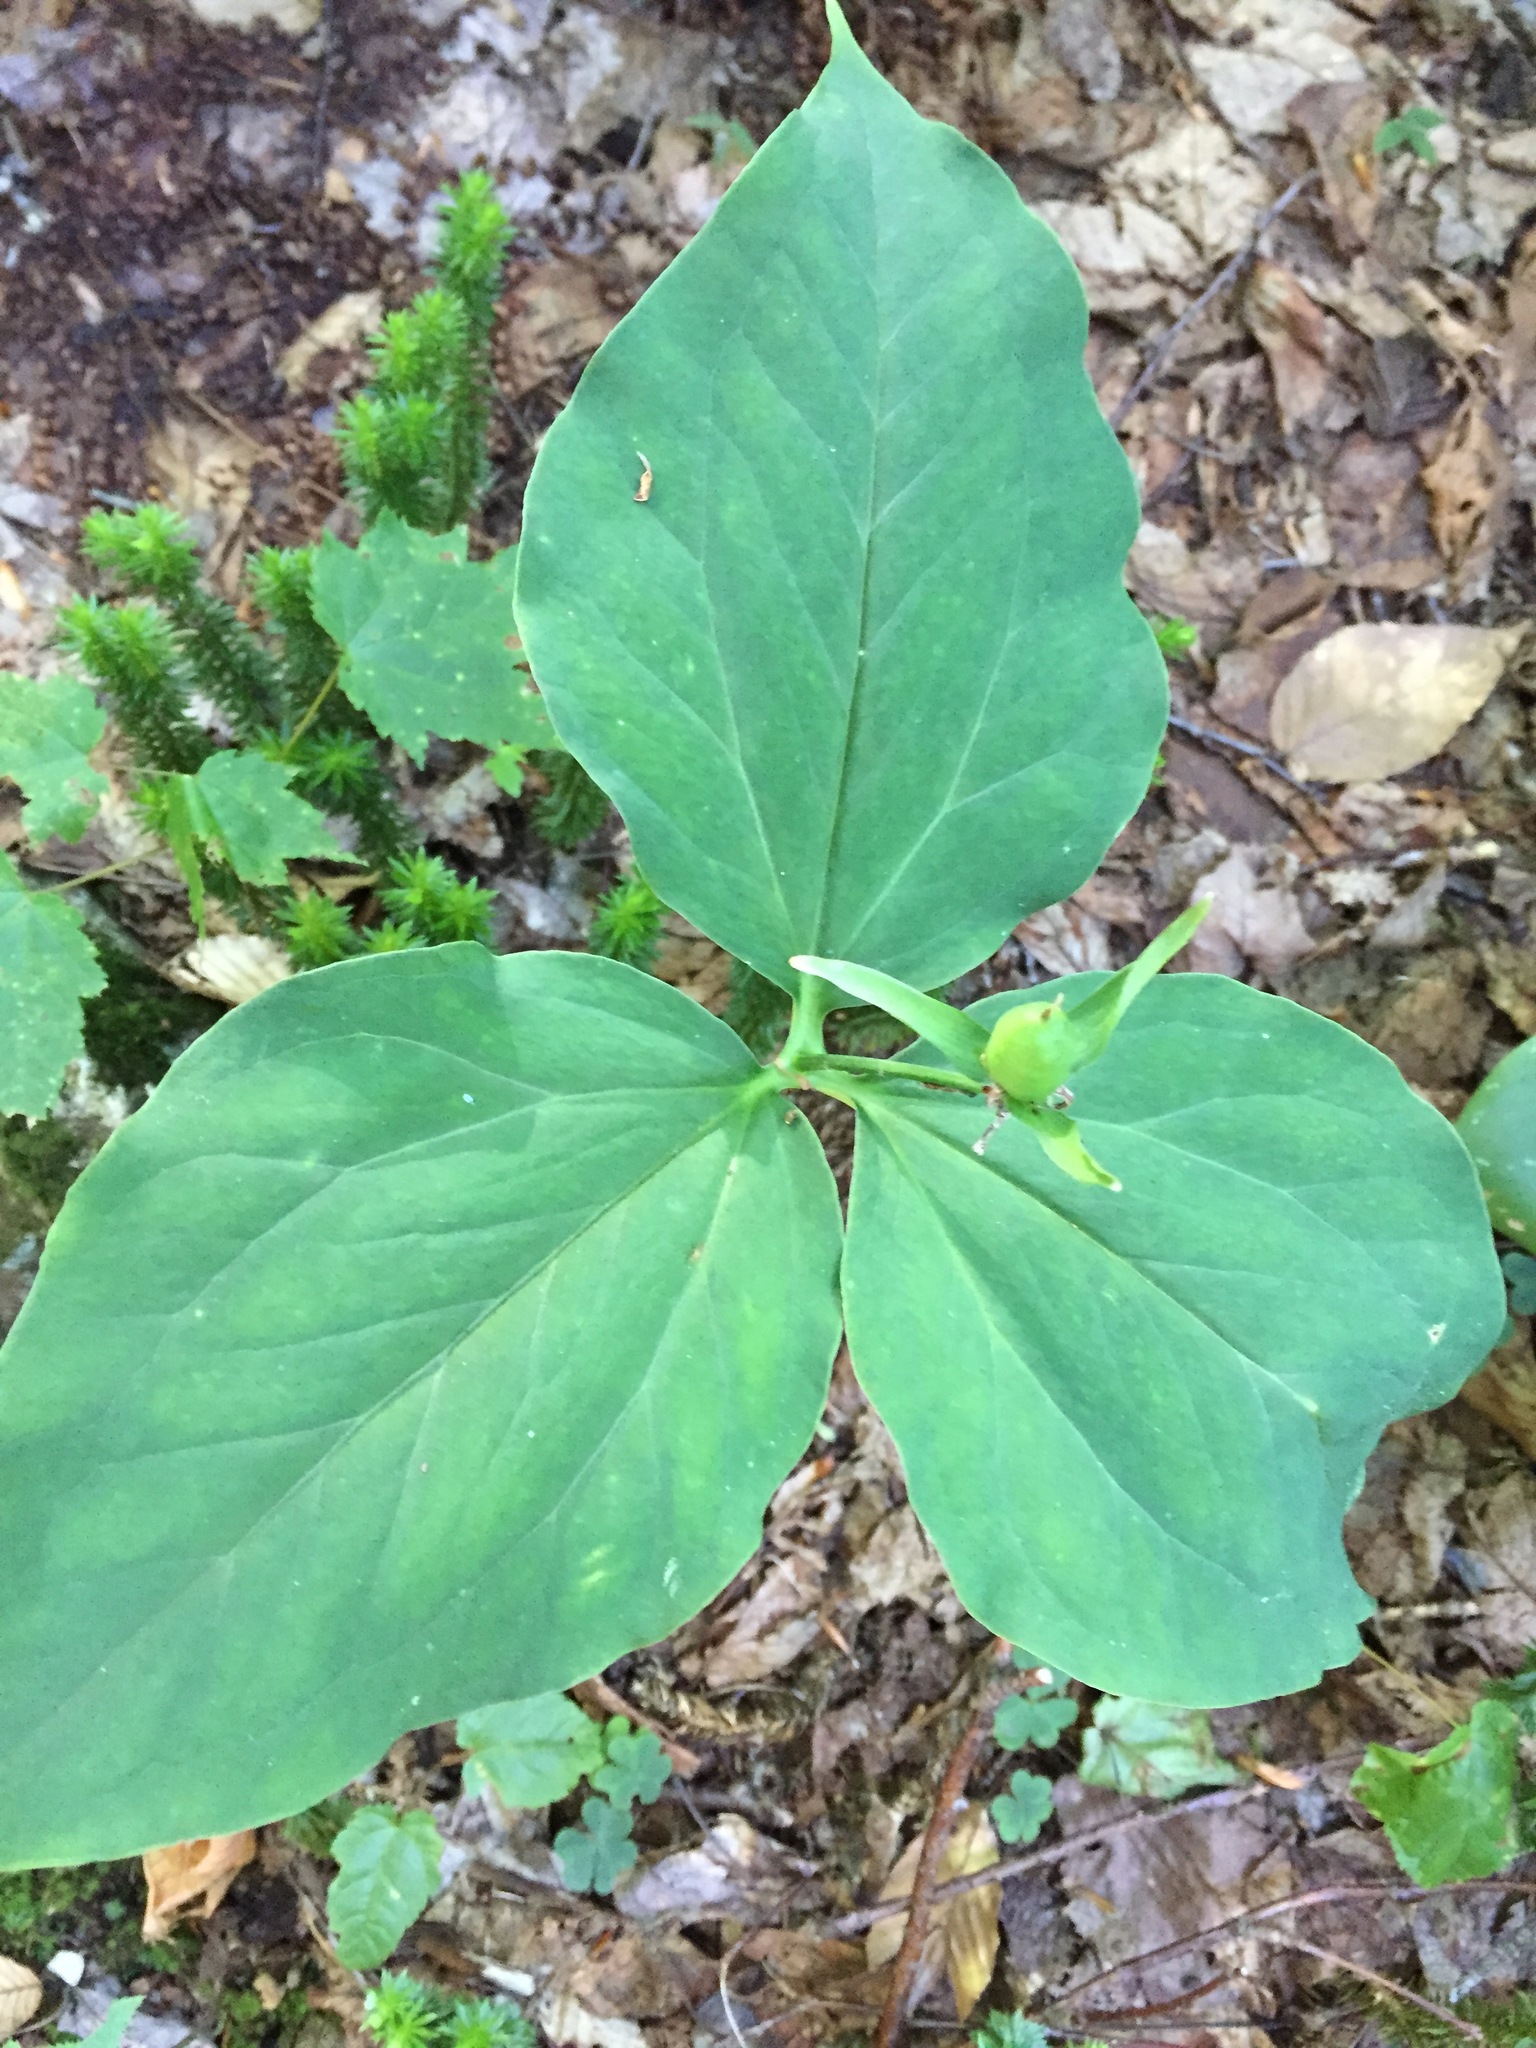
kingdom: Plantae
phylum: Tracheophyta
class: Liliopsida
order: Liliales
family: Melanthiaceae
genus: Trillium
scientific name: Trillium undulatum
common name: Paint trillium
